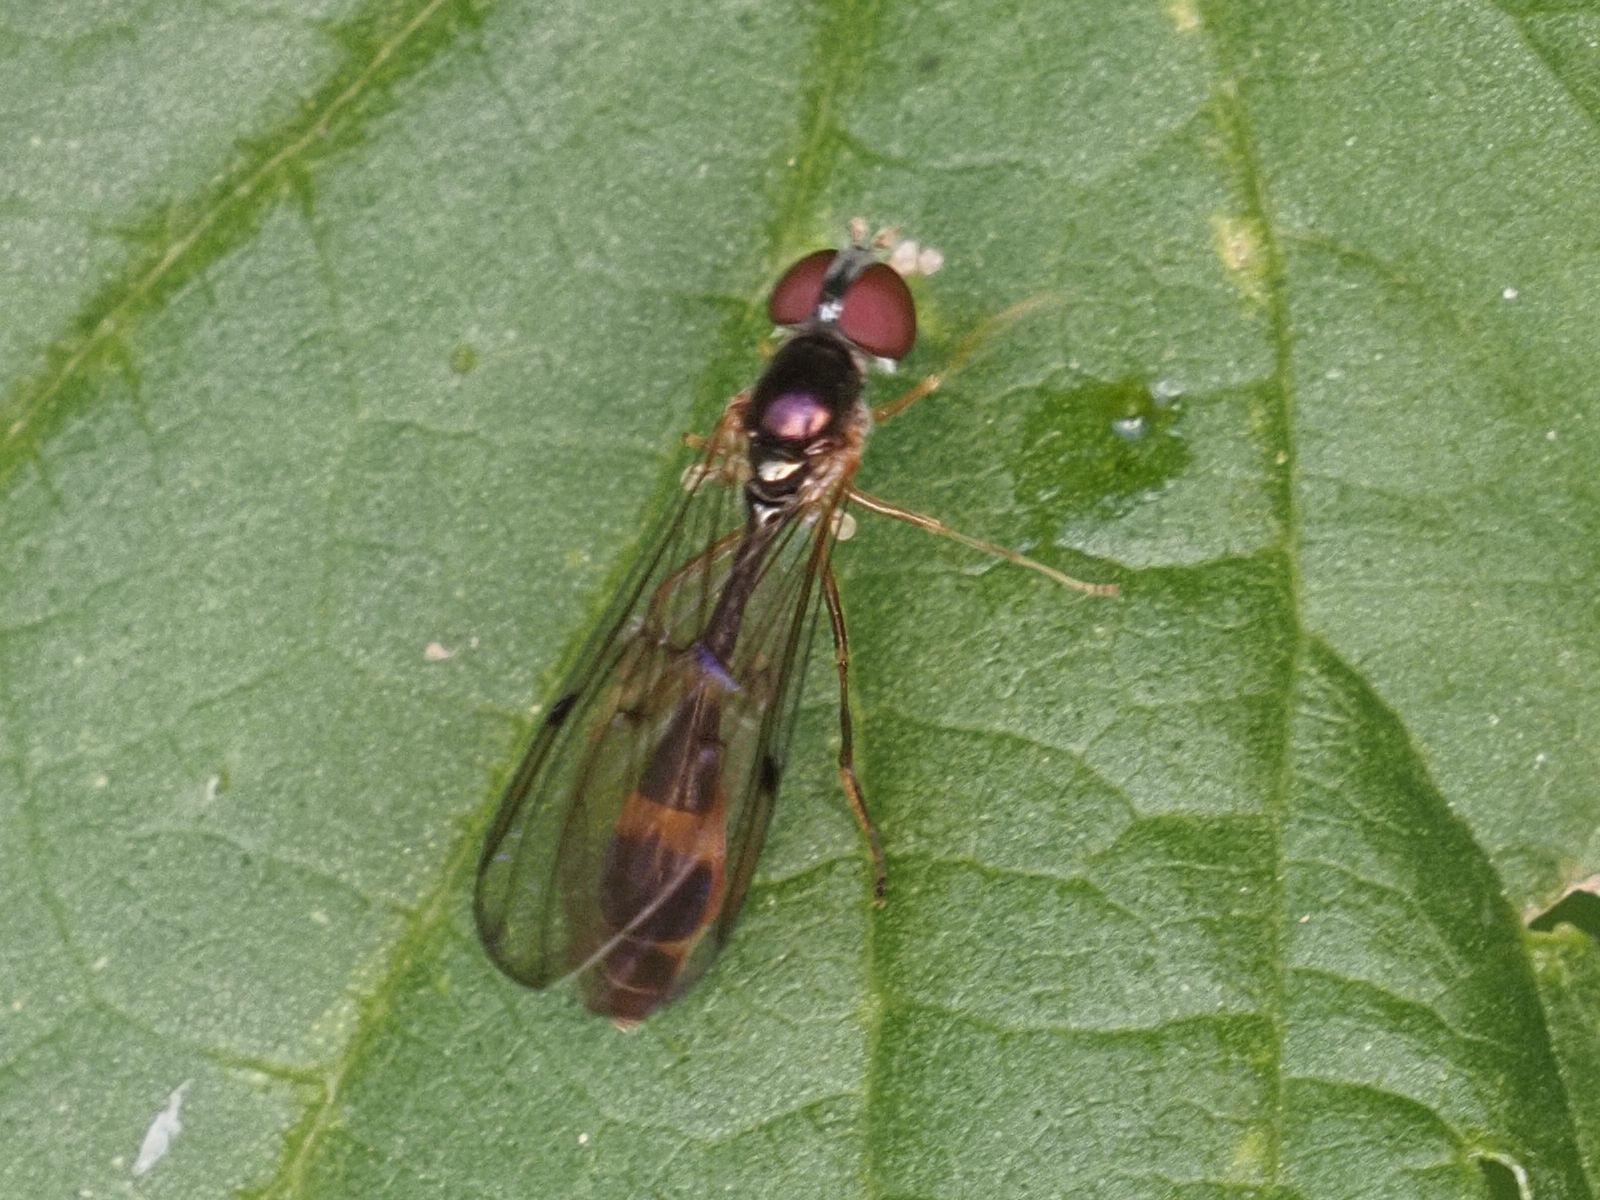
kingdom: Animalia
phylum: Arthropoda
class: Insecta
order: Diptera
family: Syrphidae
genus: Baccha
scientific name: Baccha elongata
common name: Common dainty
